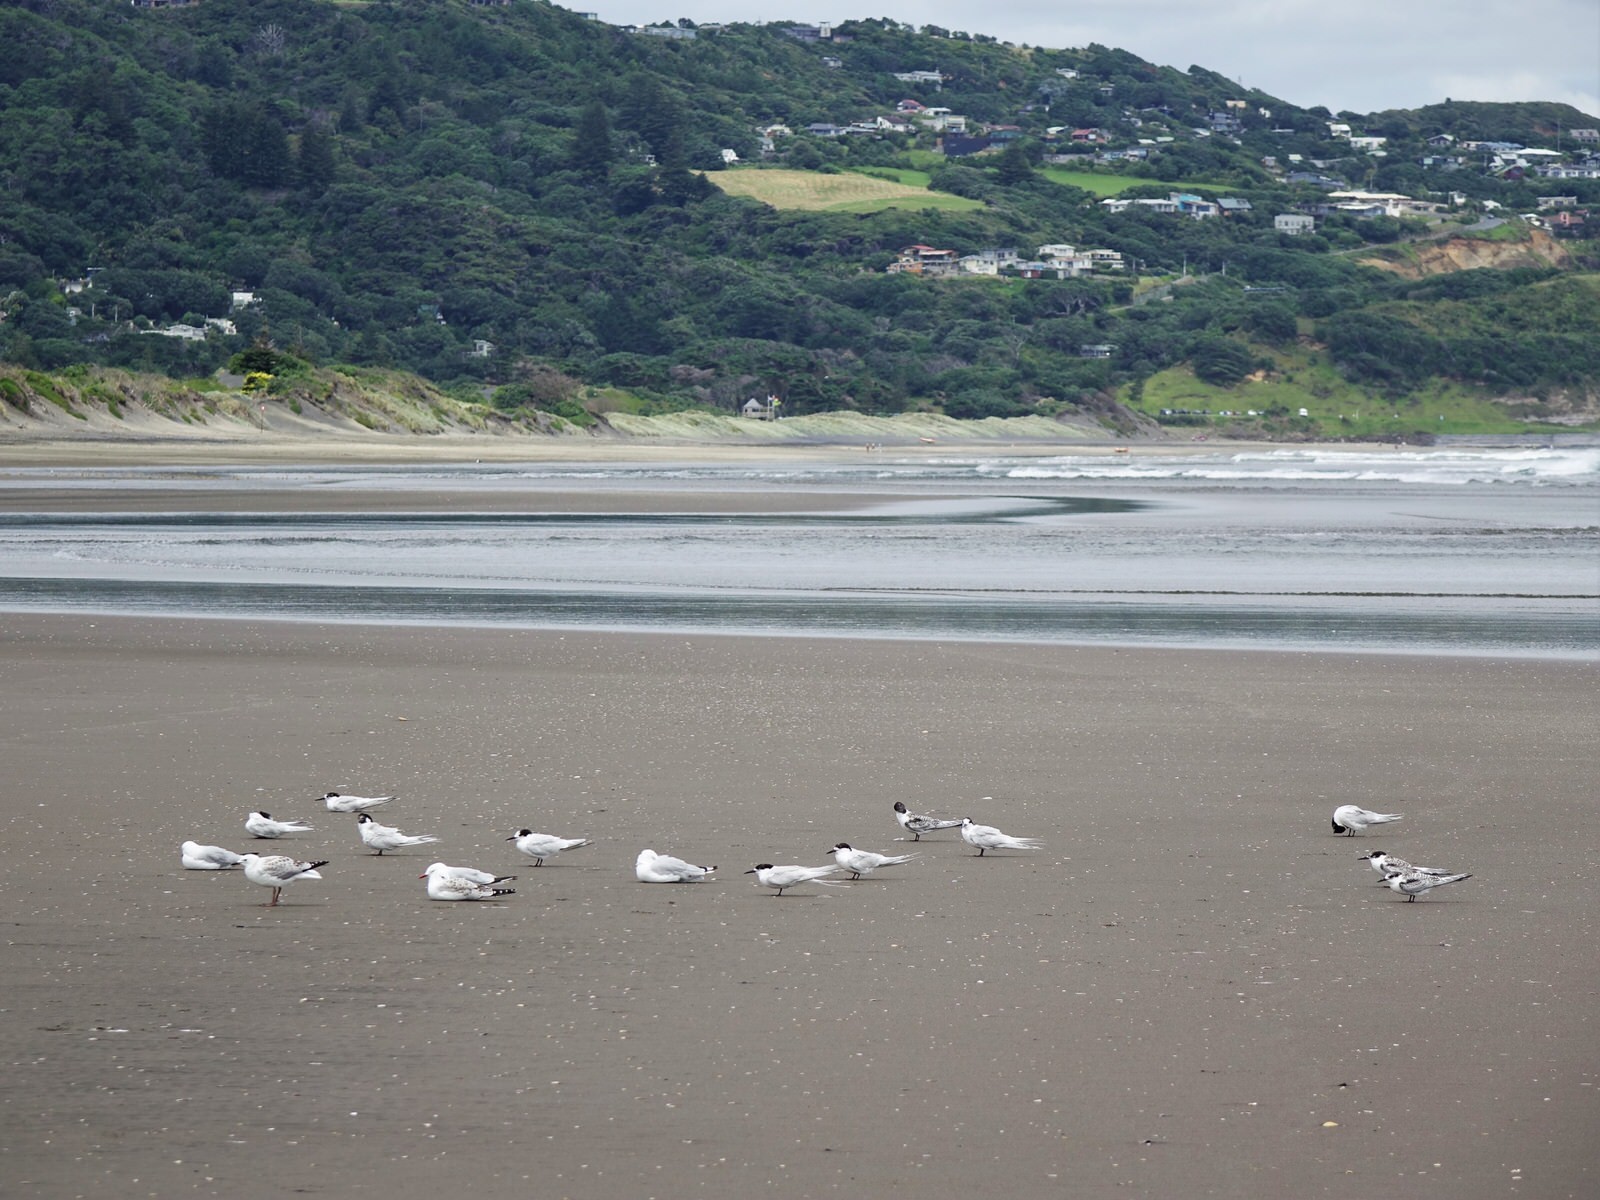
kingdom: Animalia
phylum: Chordata
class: Aves
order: Charadriiformes
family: Laridae
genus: Sterna
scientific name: Sterna striata
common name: White-fronted tern
